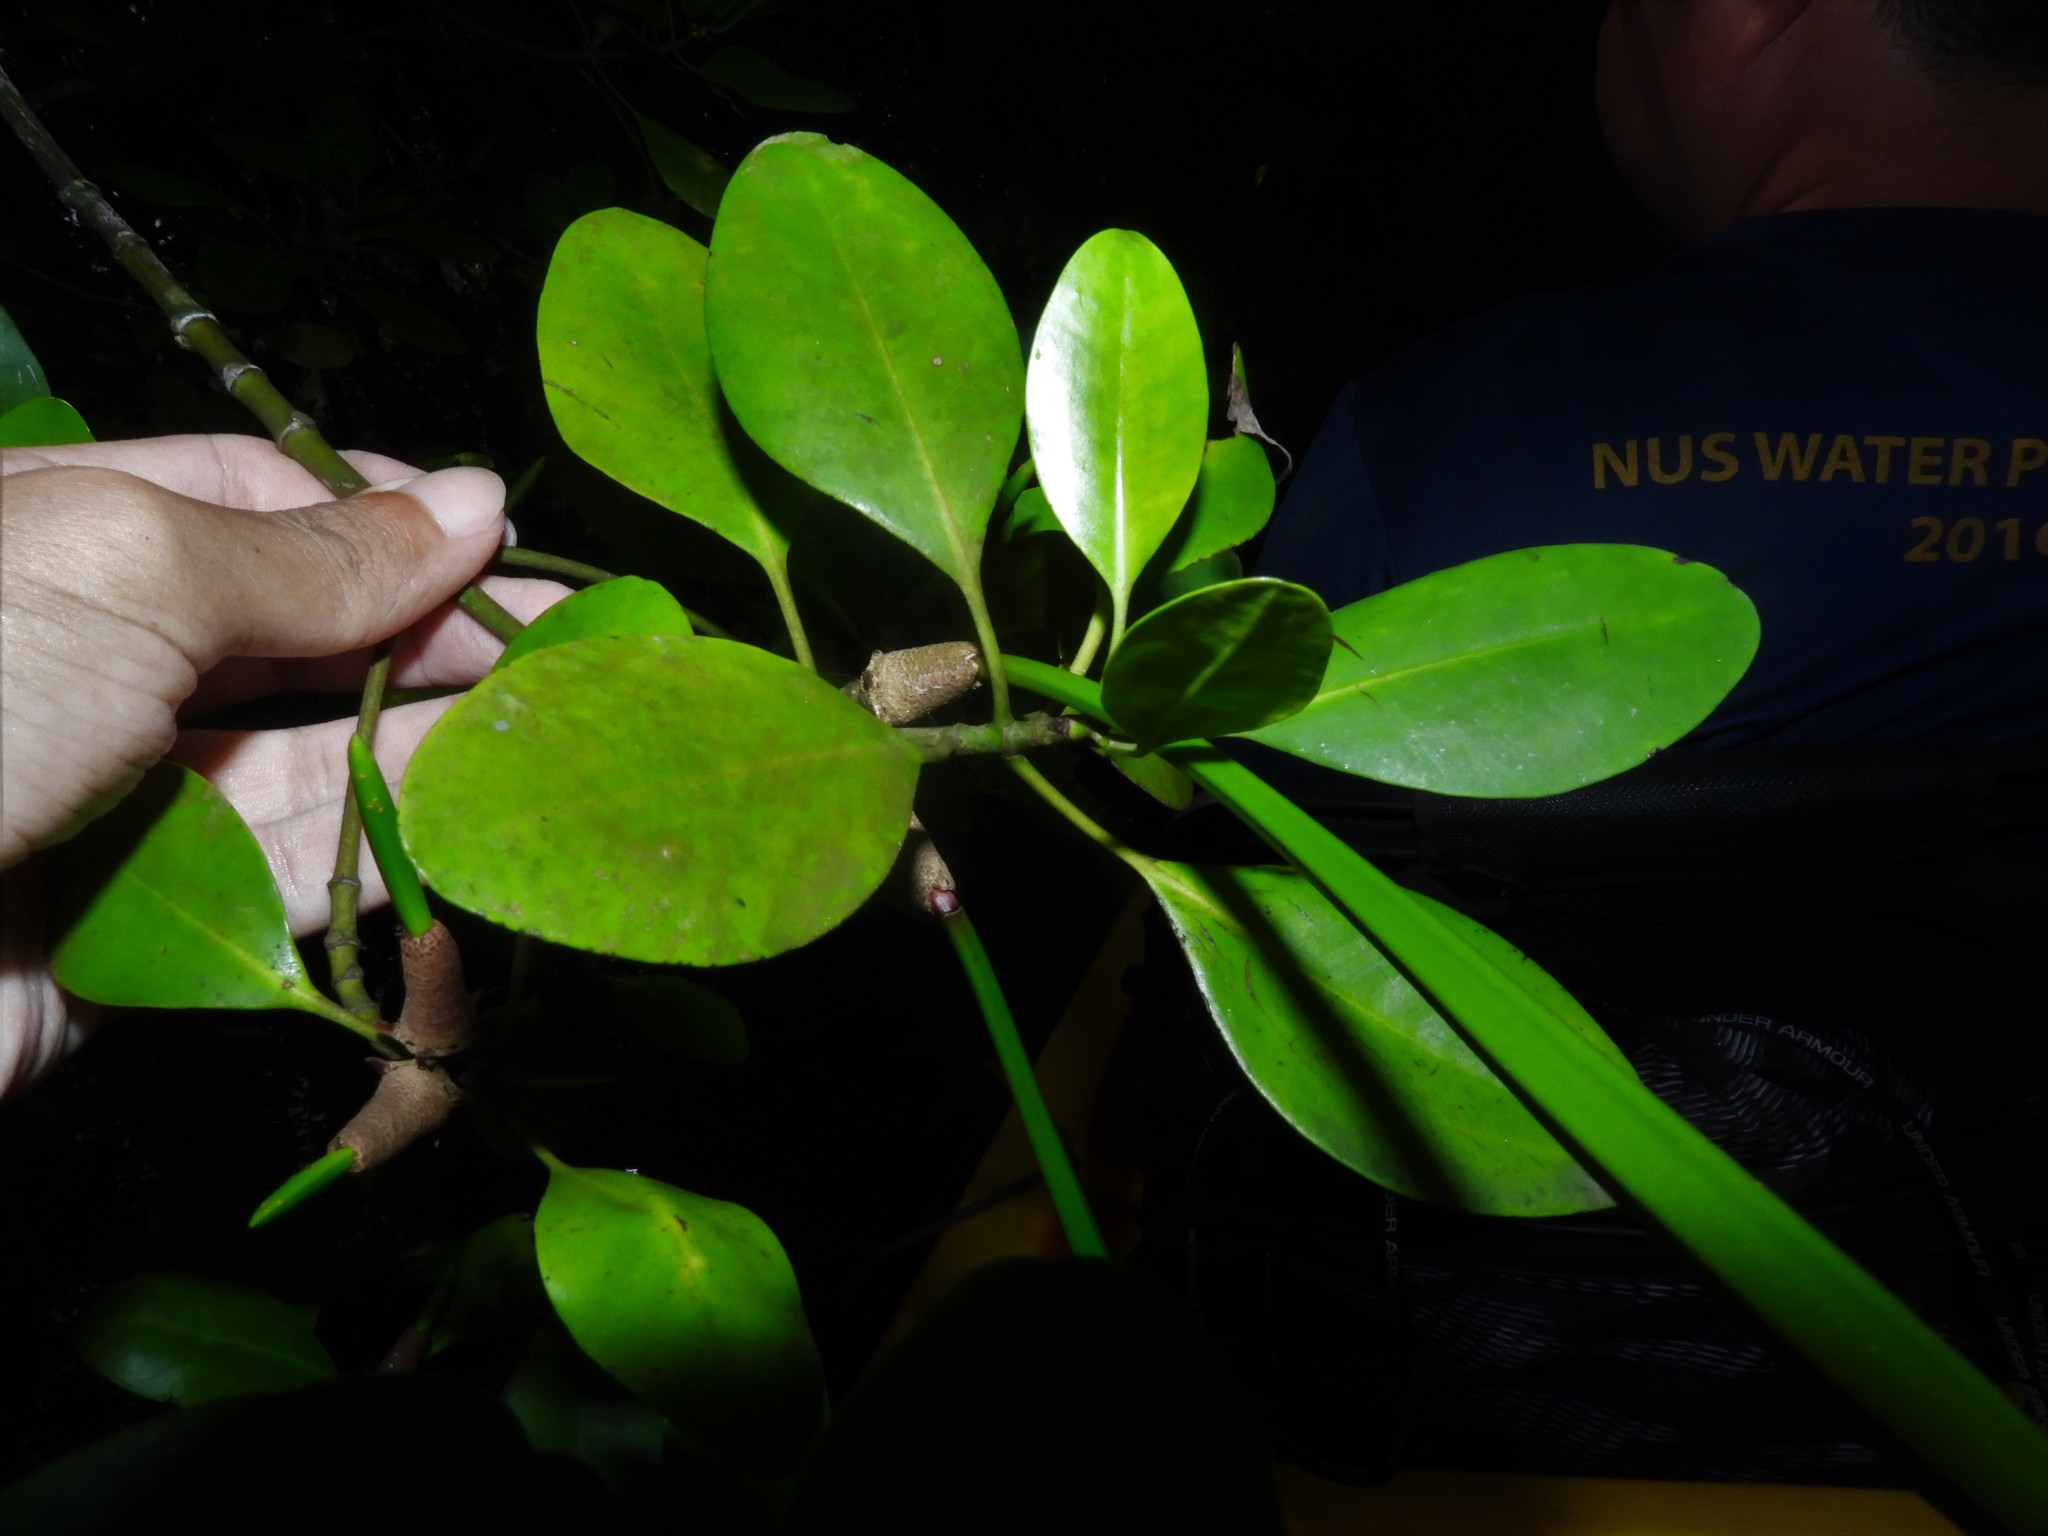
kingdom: Plantae
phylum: Tracheophyta
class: Magnoliopsida
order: Malpighiales
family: Rhizophoraceae
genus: Ceriops
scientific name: Ceriops zippeliana
